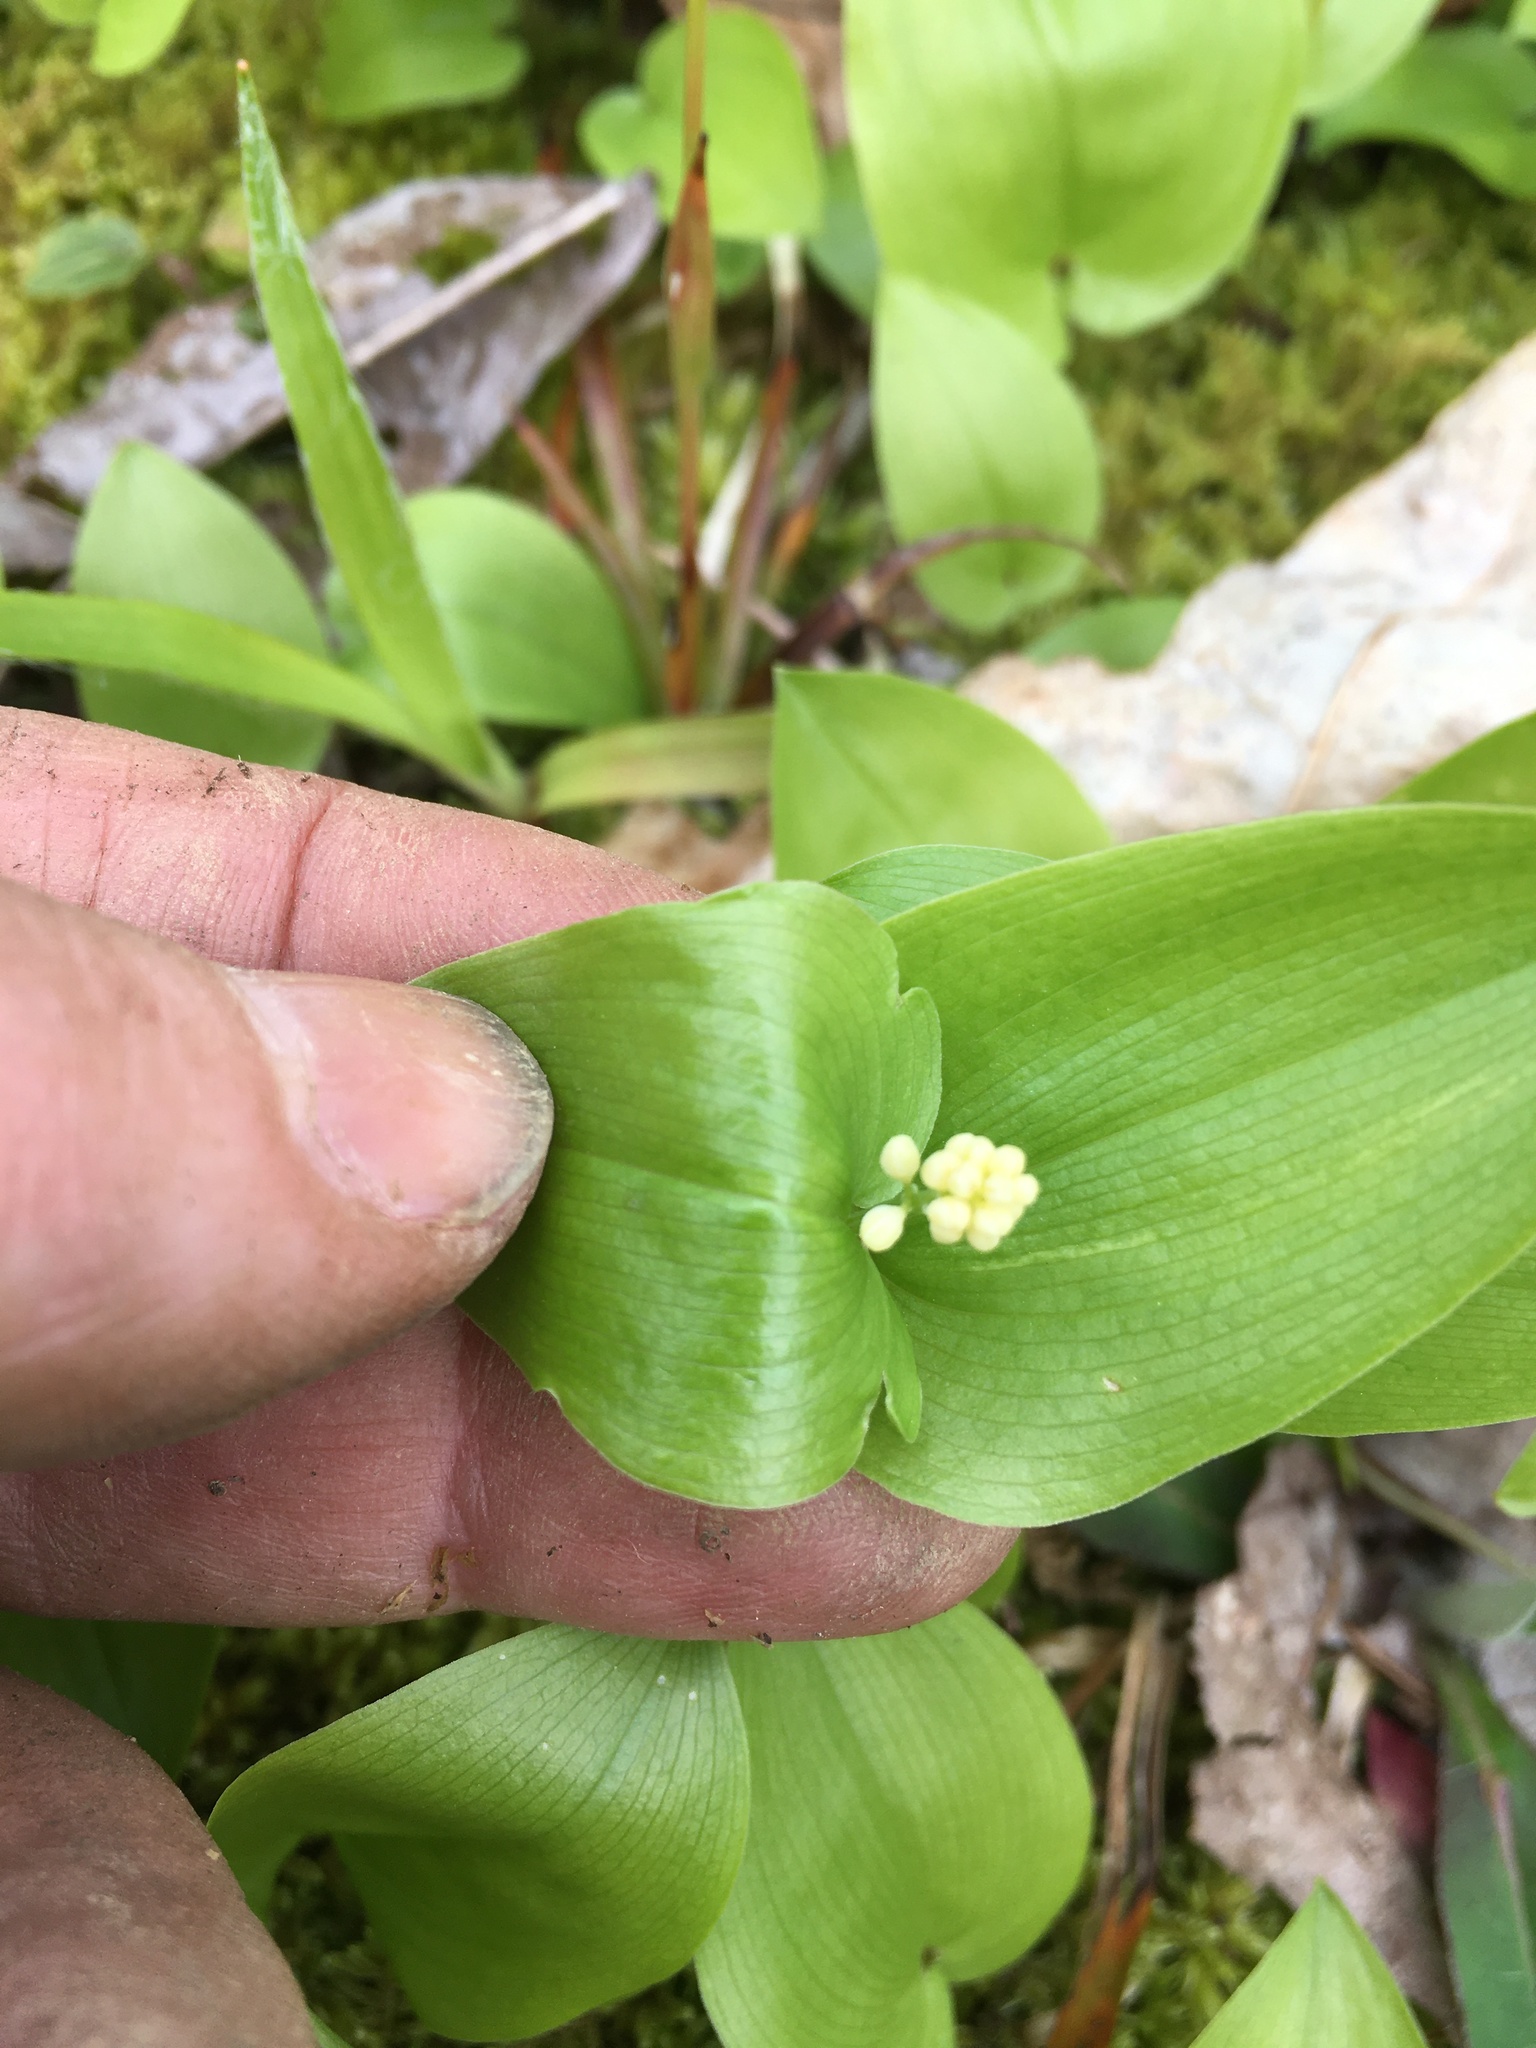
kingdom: Plantae
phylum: Tracheophyta
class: Liliopsida
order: Asparagales
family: Asparagaceae
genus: Maianthemum
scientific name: Maianthemum canadense
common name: False lily-of-the-valley
